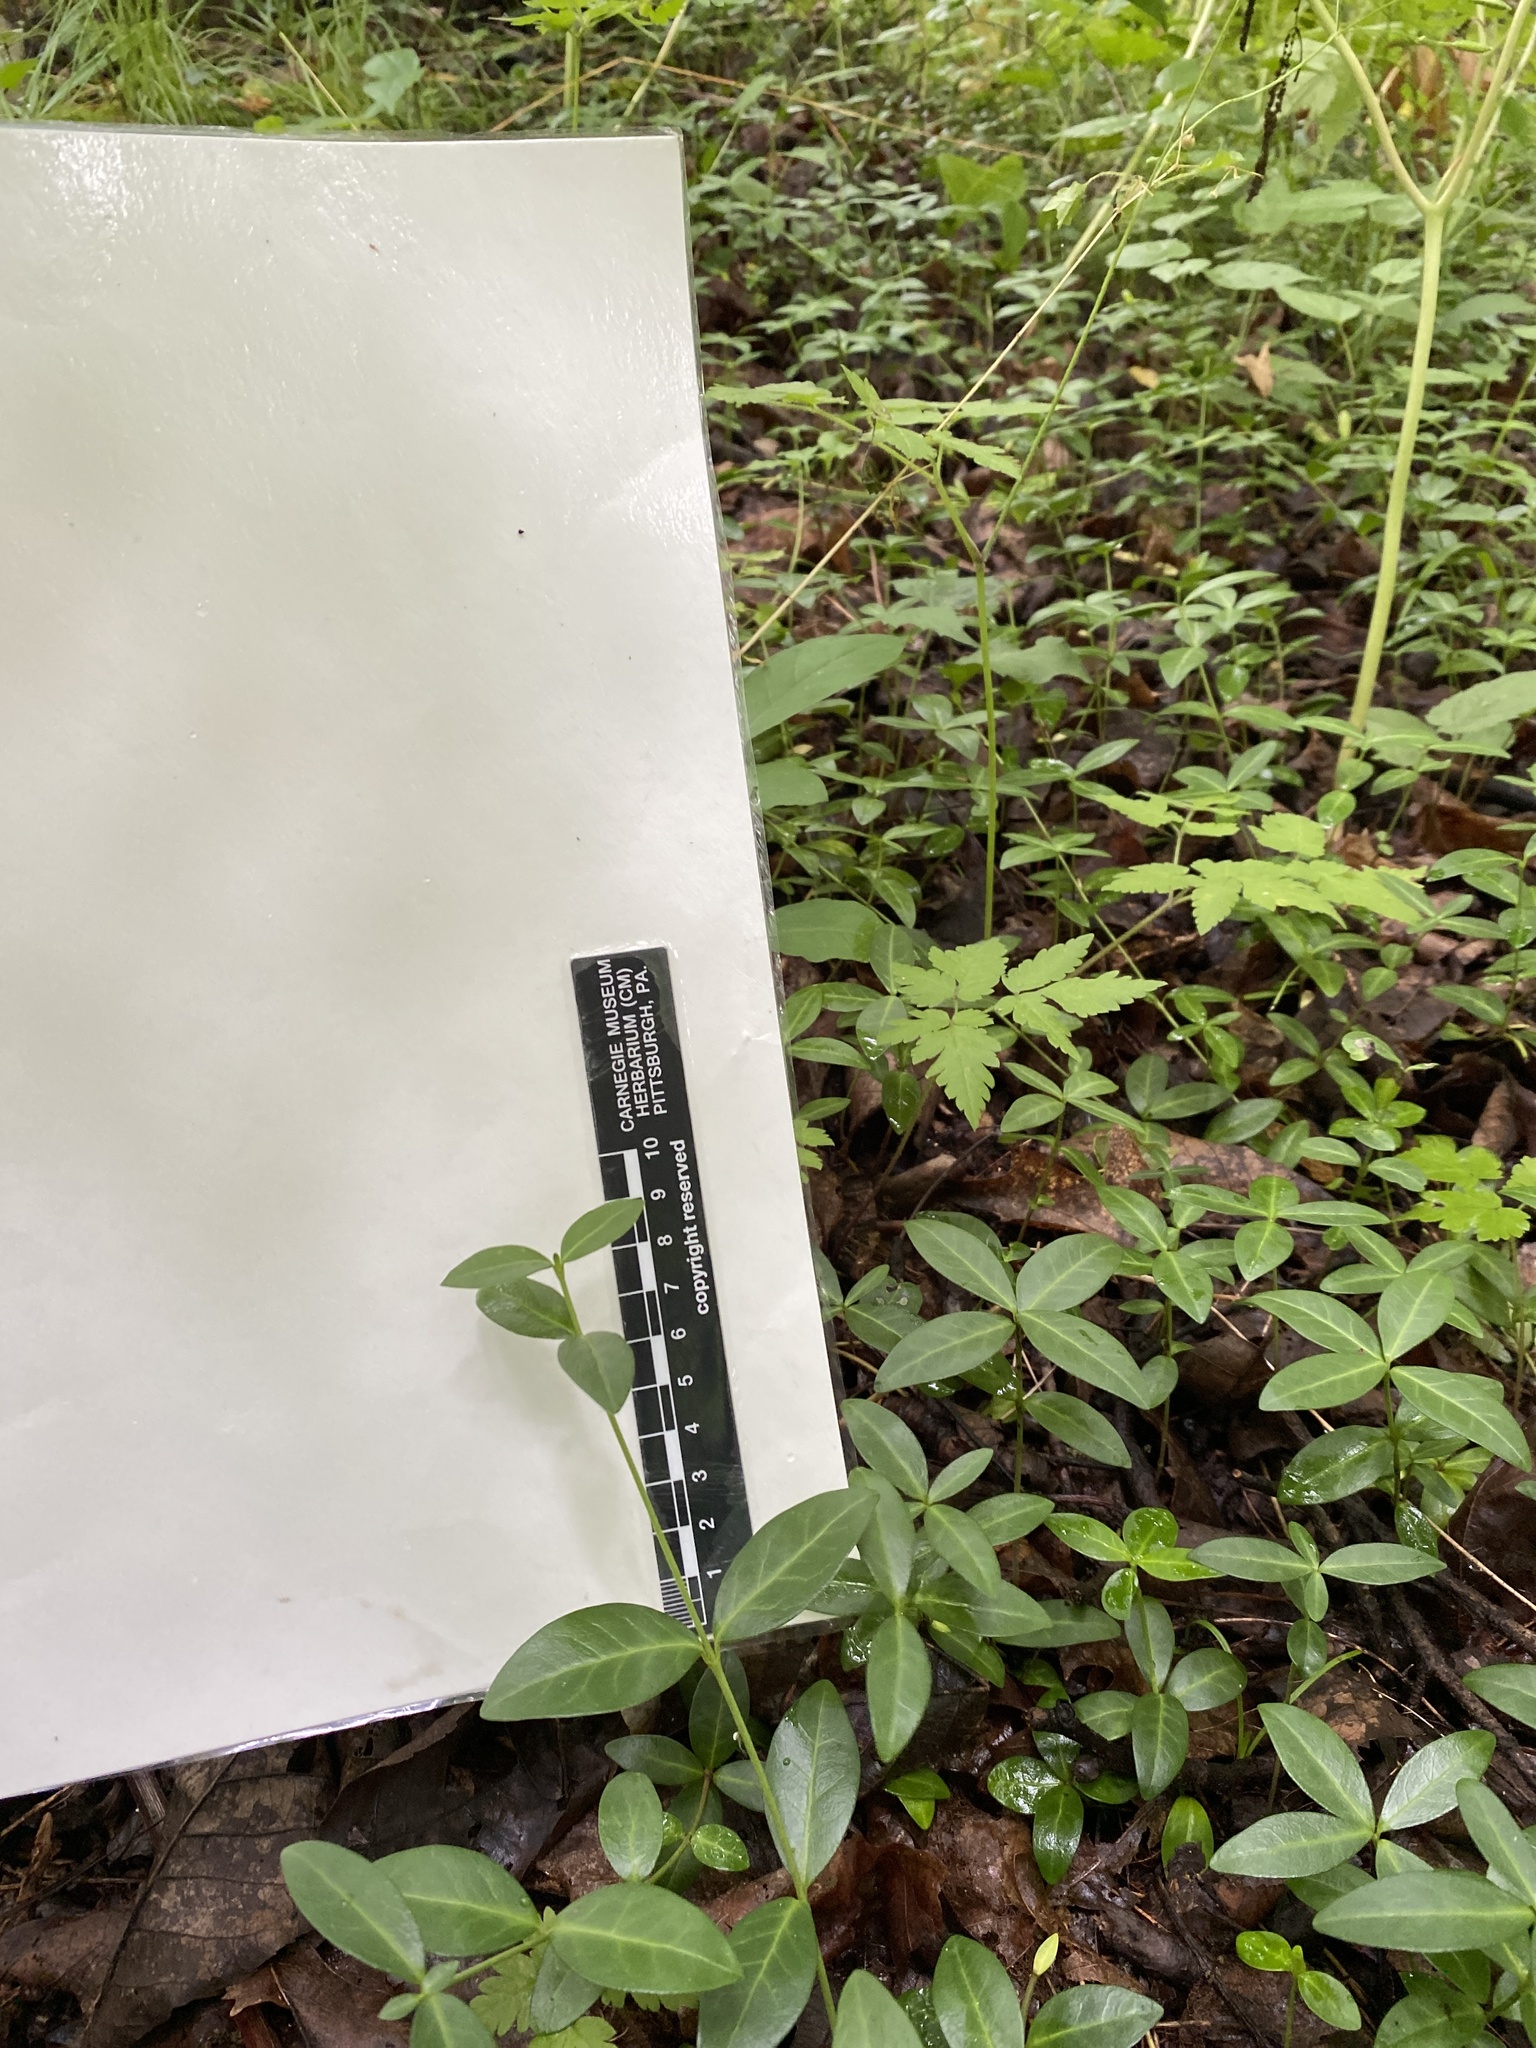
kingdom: Plantae
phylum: Tracheophyta
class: Magnoliopsida
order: Gentianales
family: Apocynaceae
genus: Vinca
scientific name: Vinca minor
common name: Lesser periwinkle
